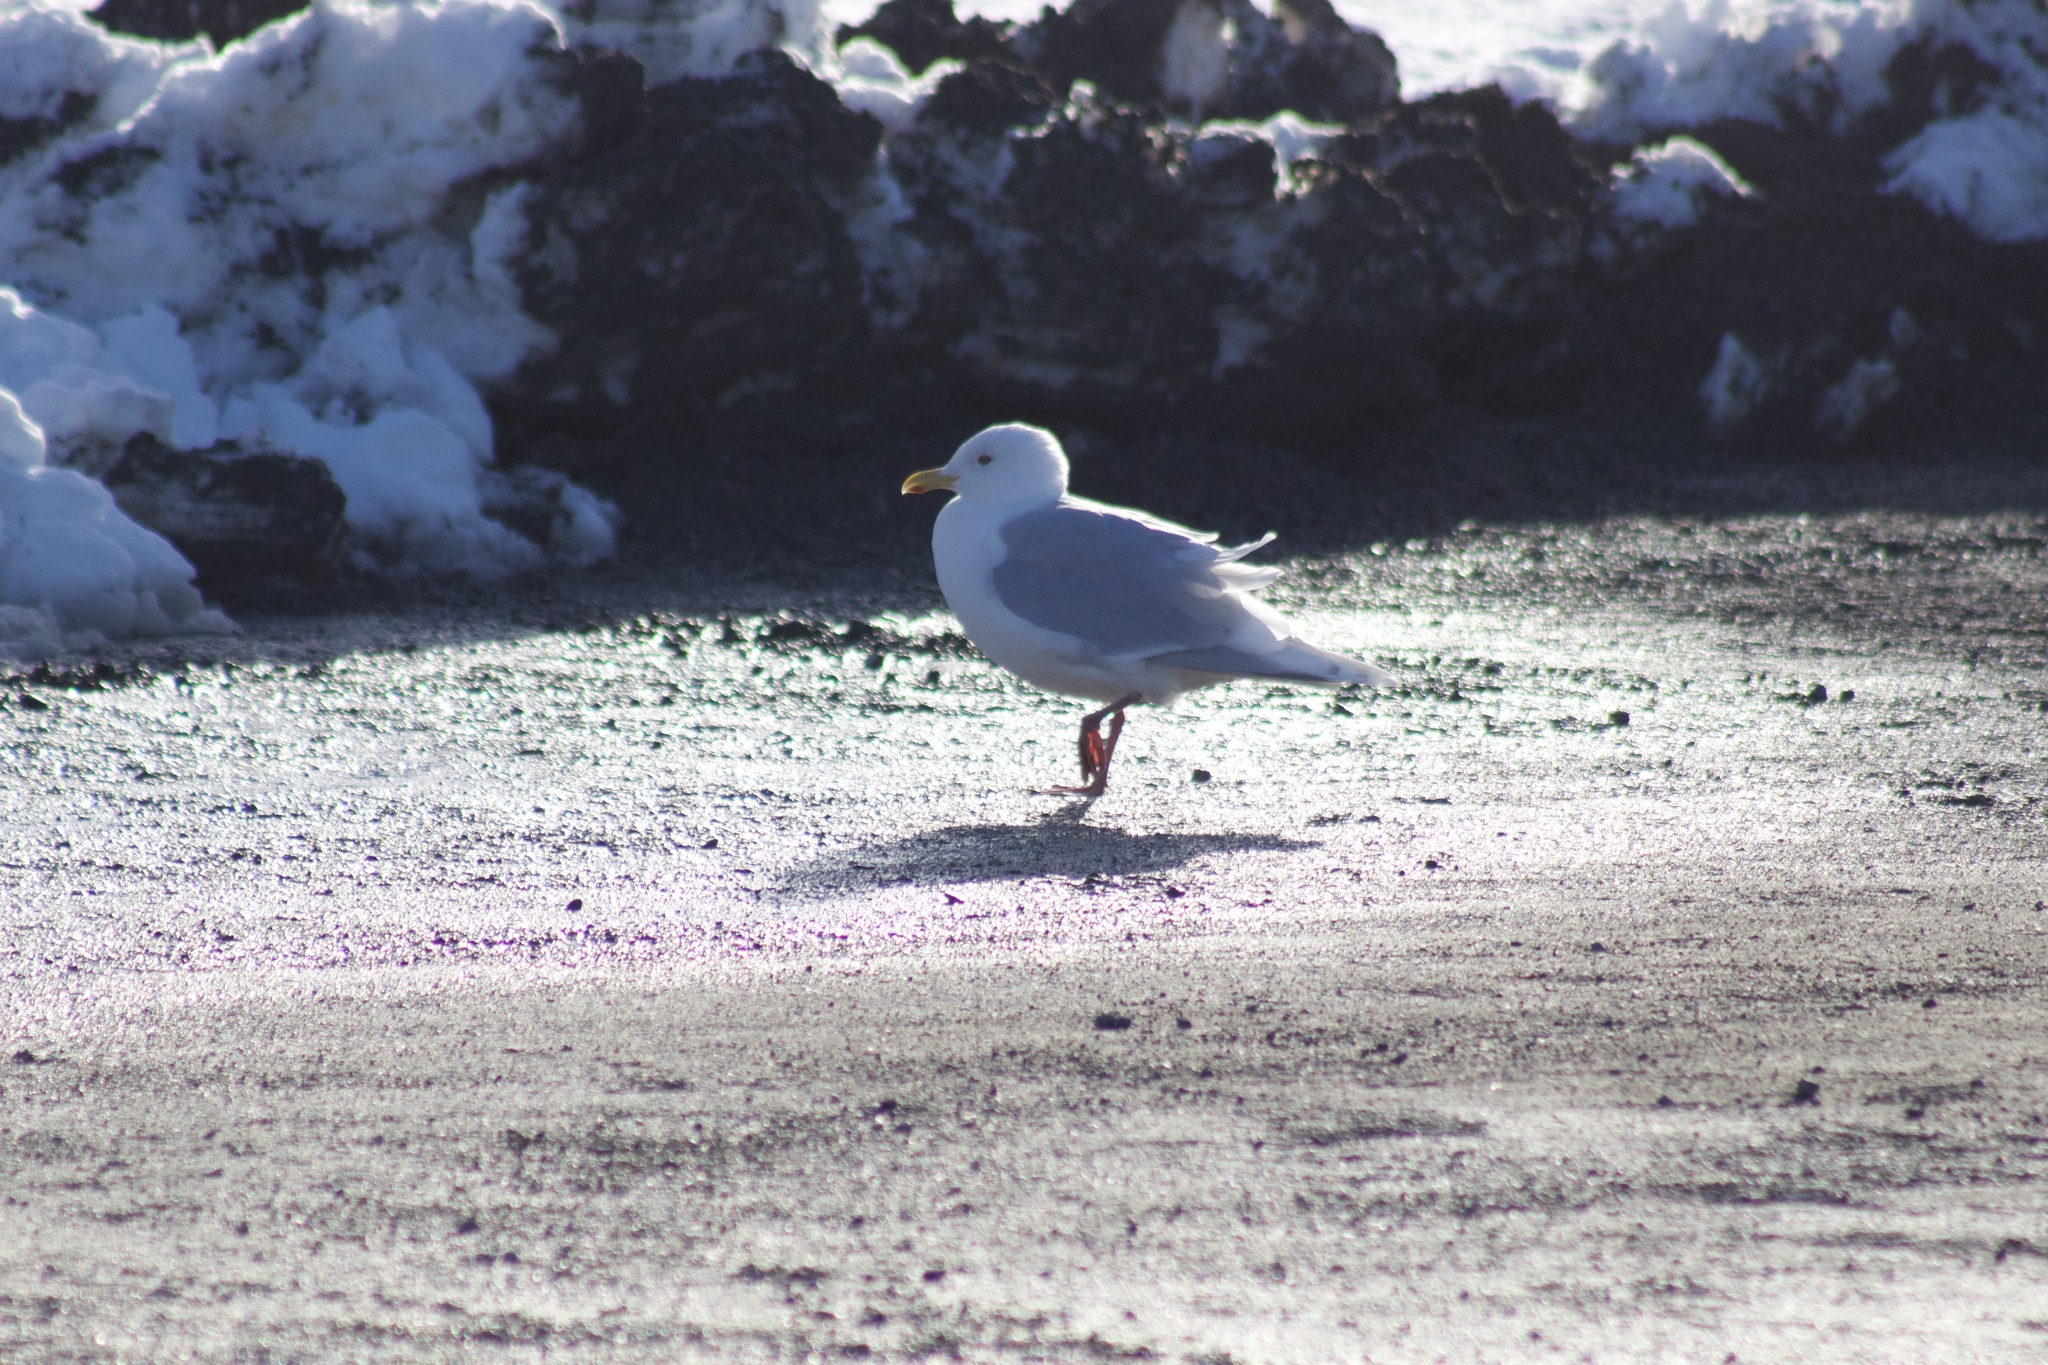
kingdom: Animalia
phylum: Chordata
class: Aves
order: Charadriiformes
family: Laridae
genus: Larus
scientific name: Larus glaucoides
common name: Iceland gull
